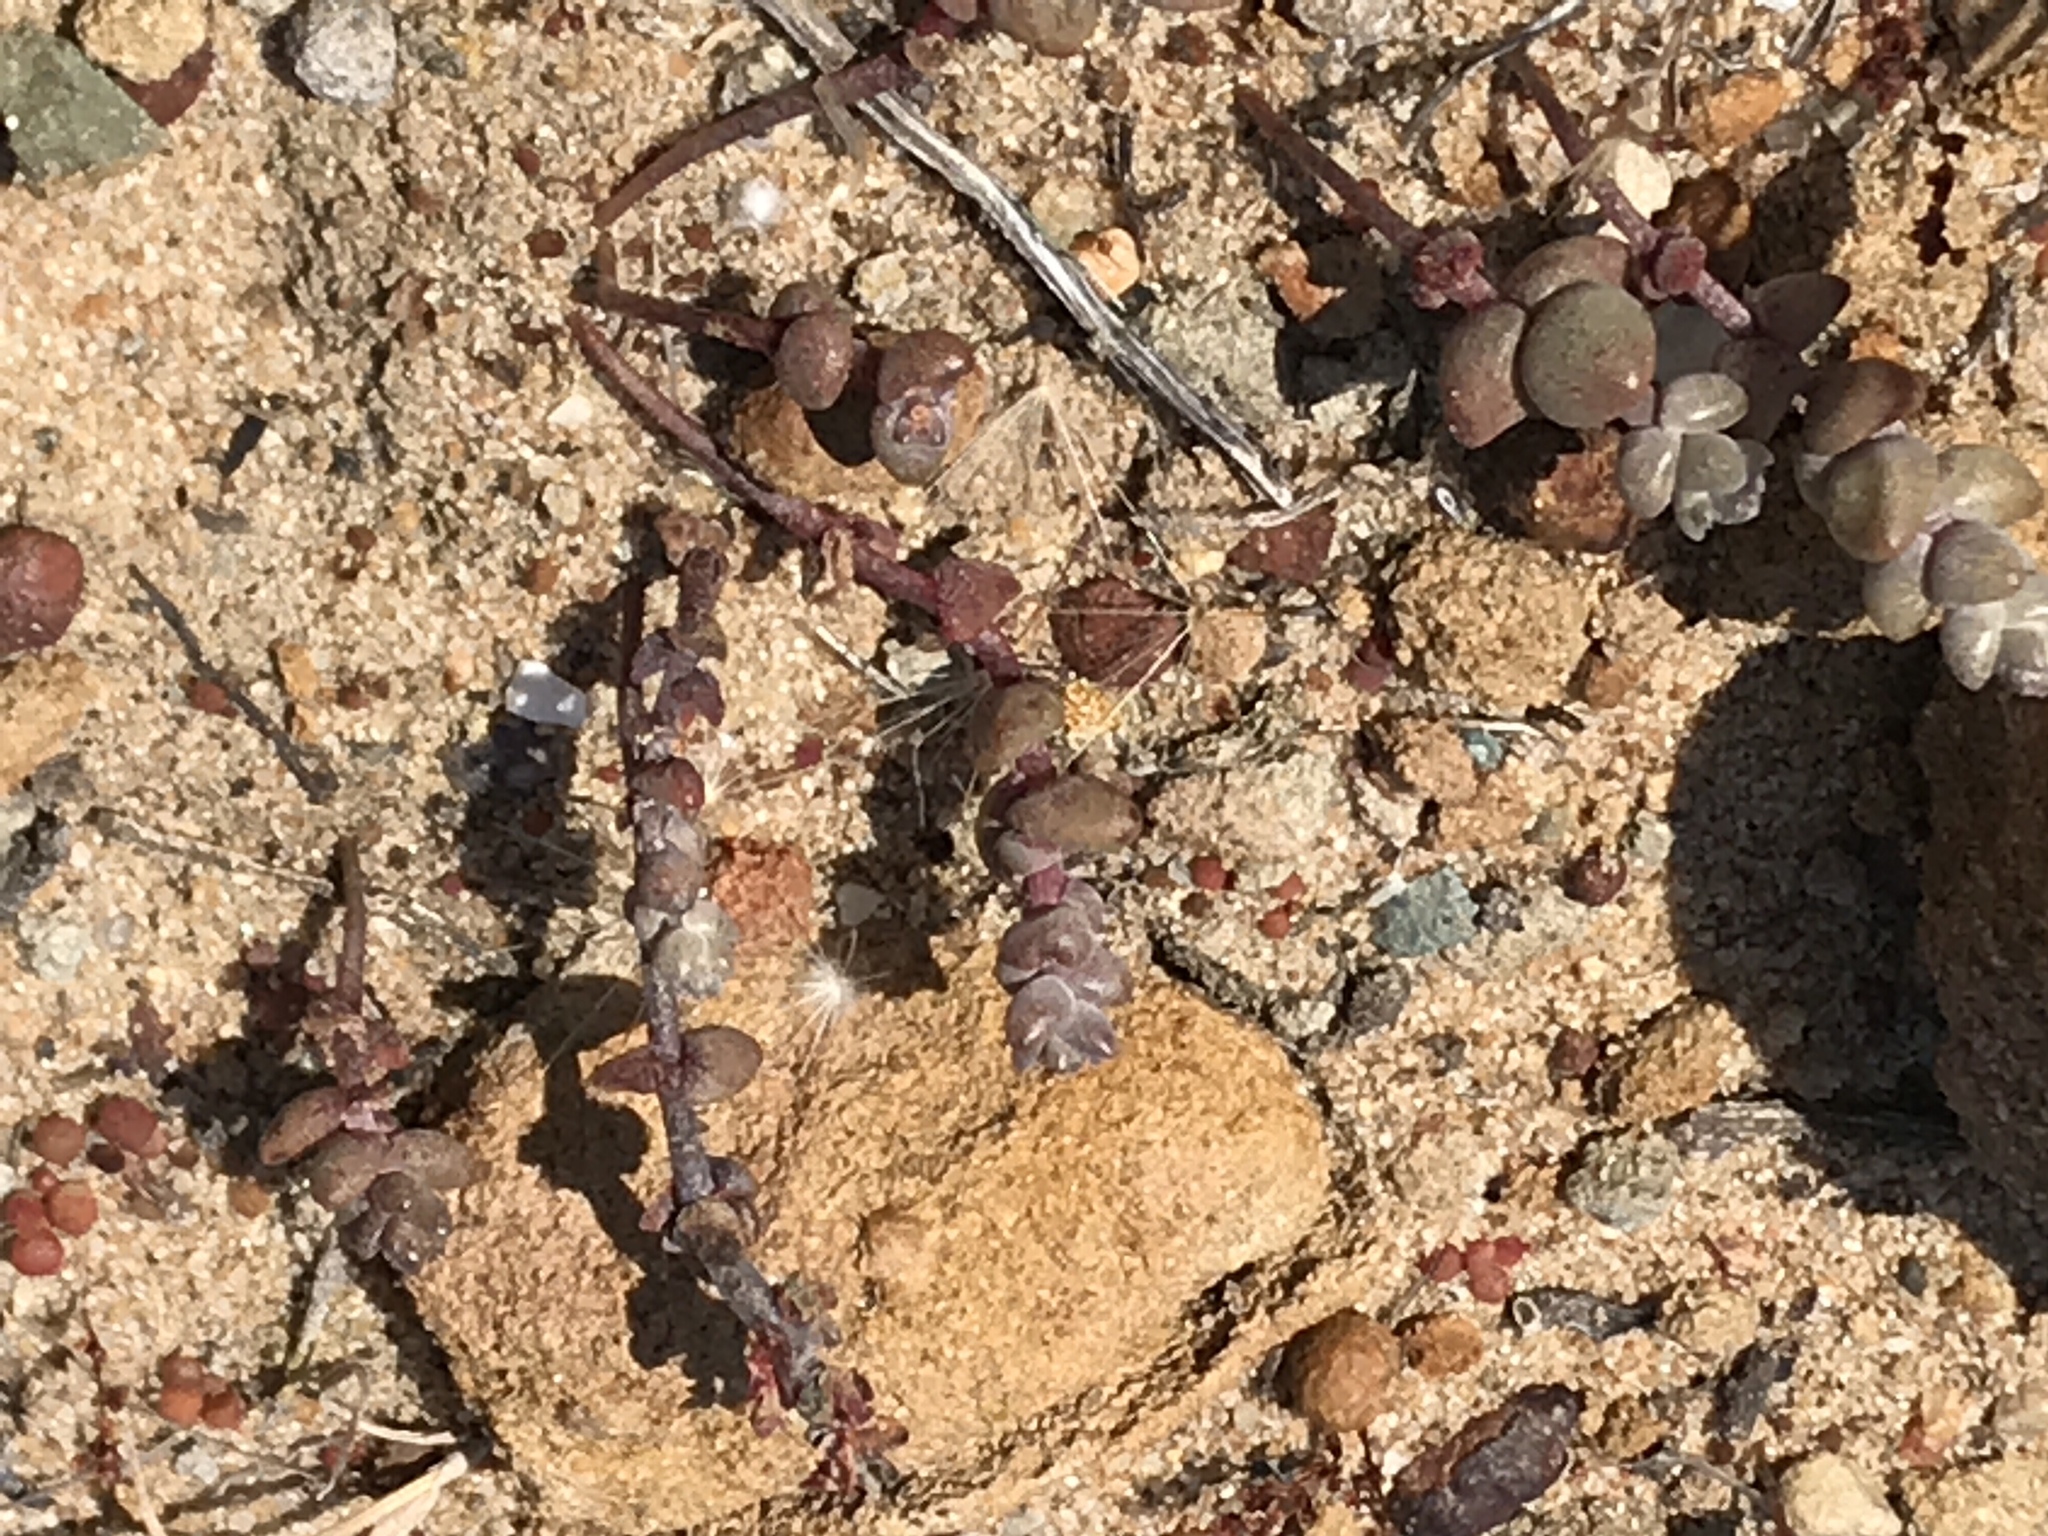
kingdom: Plantae
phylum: Tracheophyta
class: Magnoliopsida
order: Saxifragales
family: Crassulaceae
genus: Dudleya
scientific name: Dudleya blochmaniae
